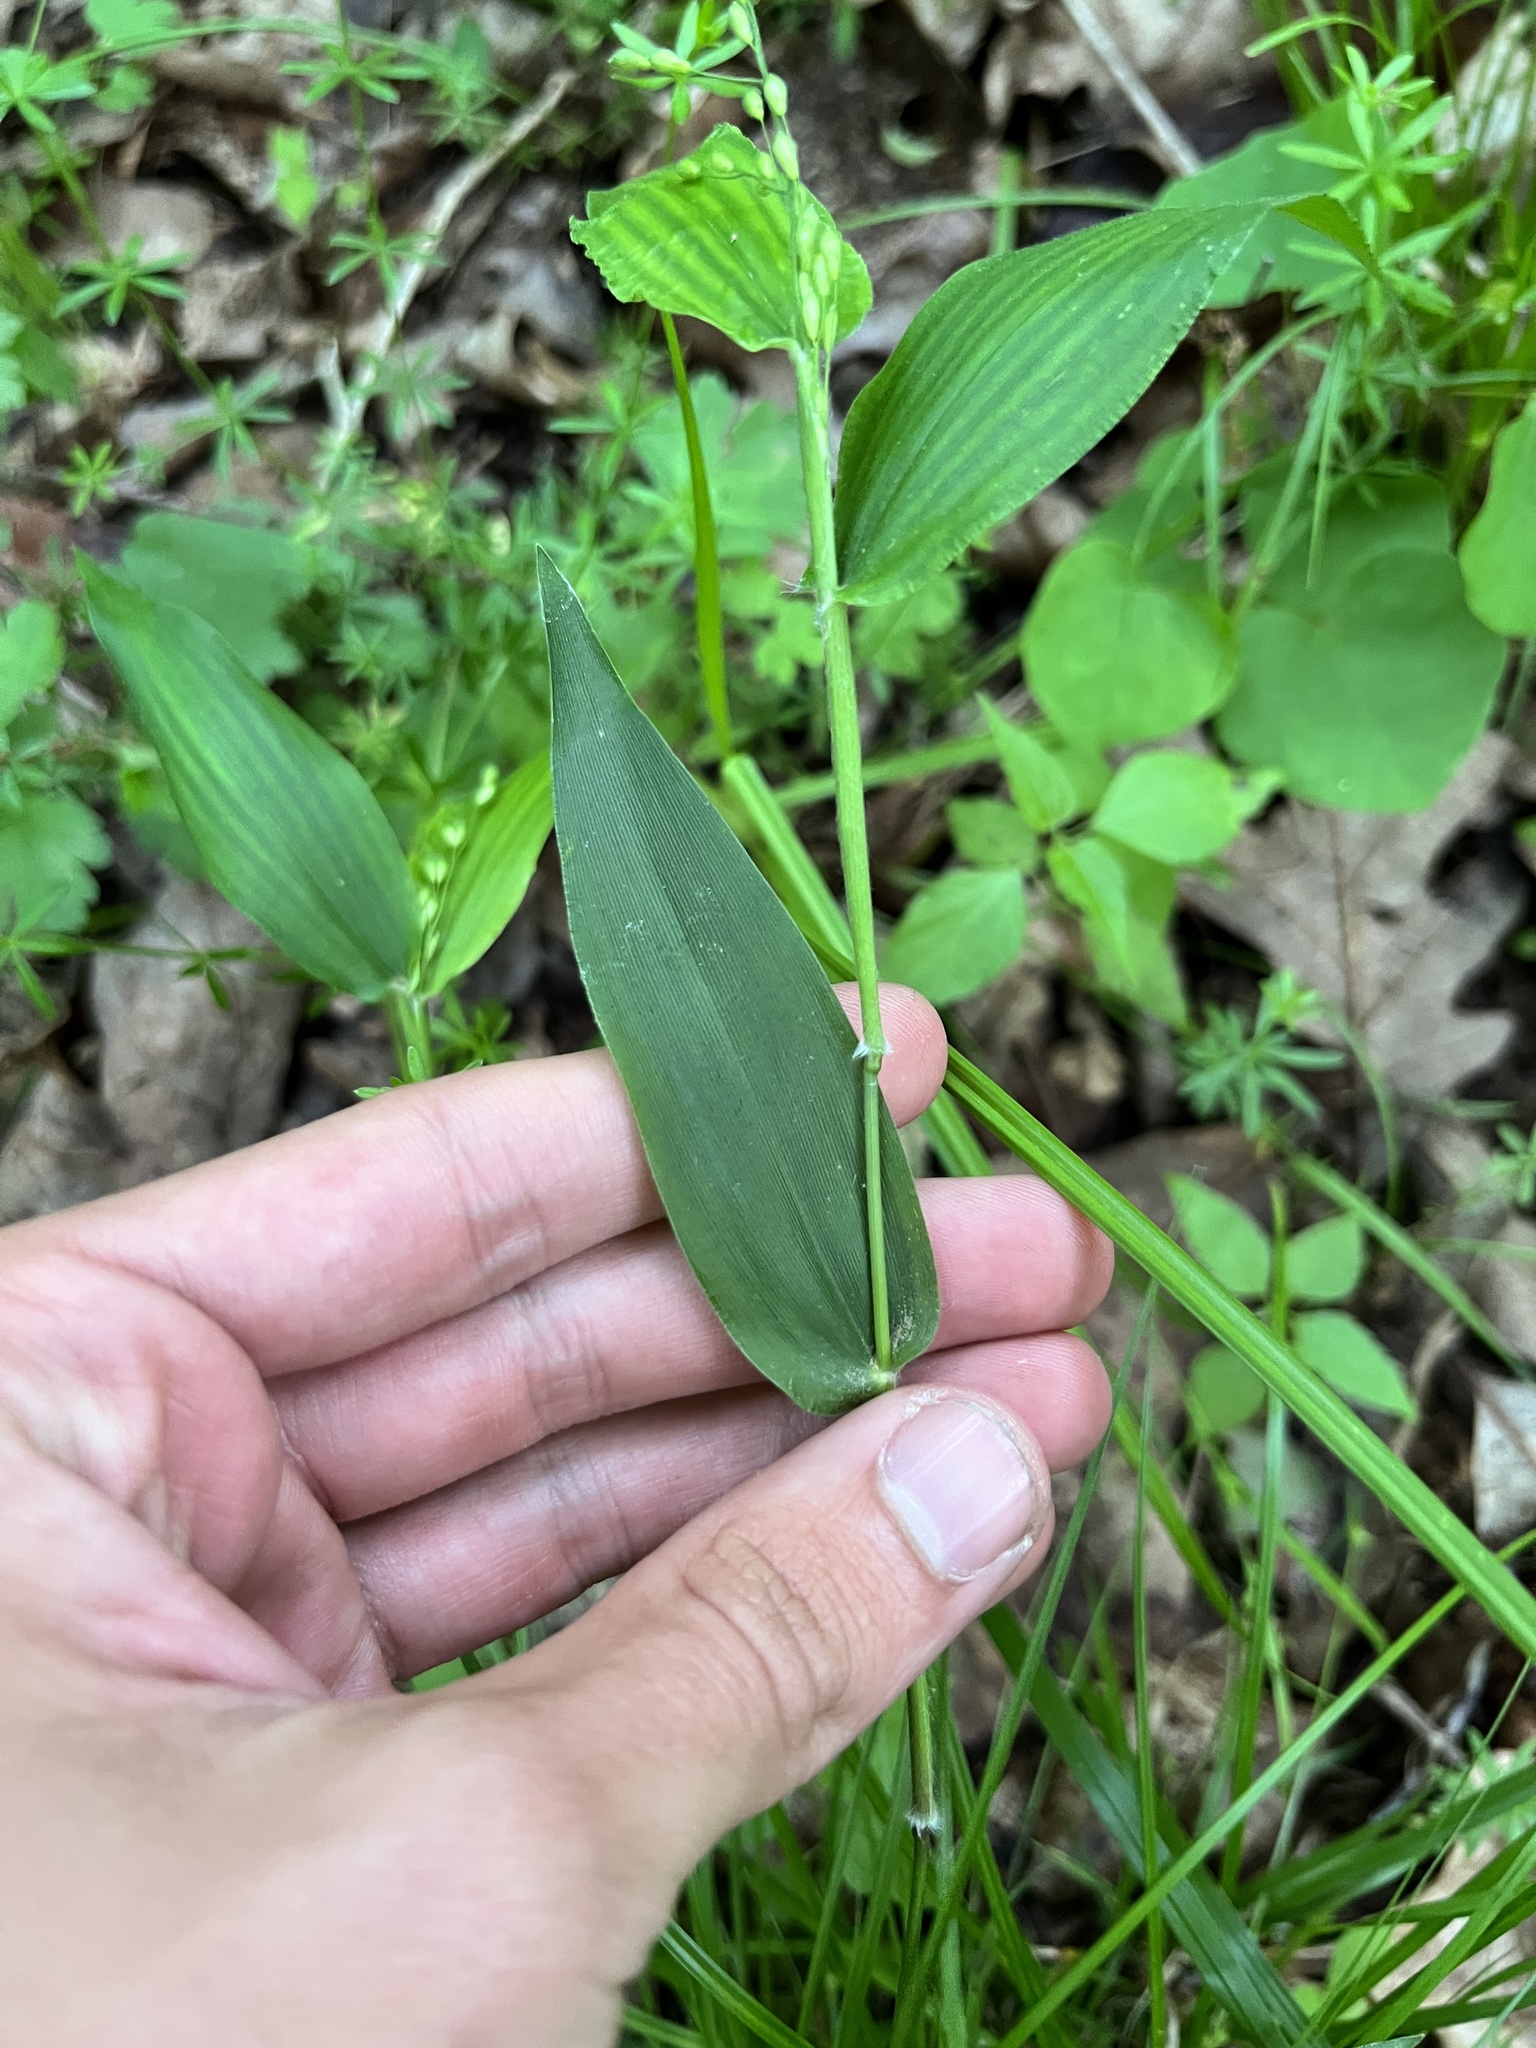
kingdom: Plantae
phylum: Tracheophyta
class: Liliopsida
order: Poales
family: Poaceae
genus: Dichanthelium
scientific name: Dichanthelium boscii
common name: Bosc's panic grass
